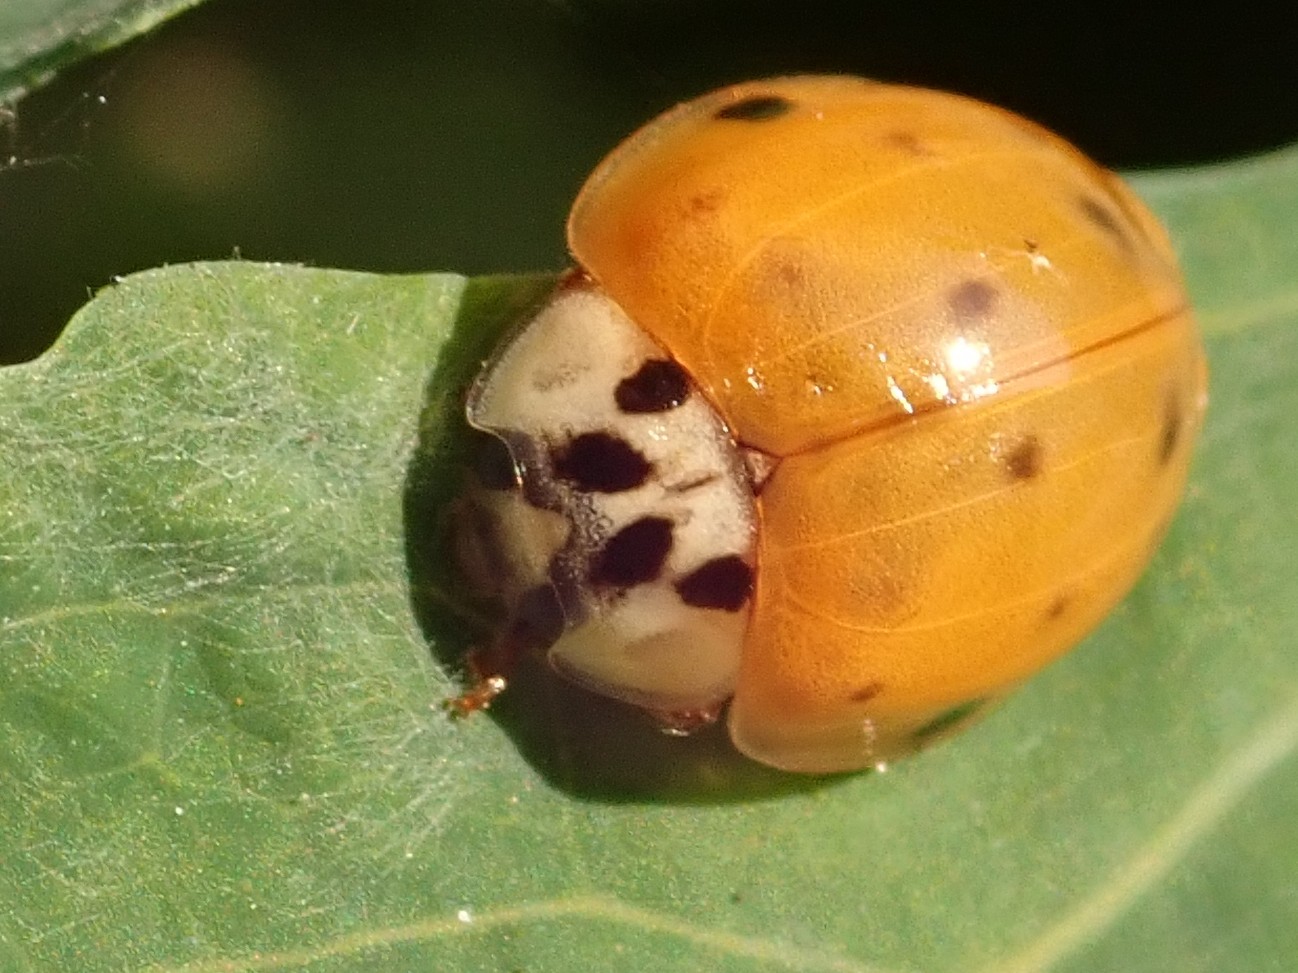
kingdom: Animalia
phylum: Arthropoda
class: Insecta
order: Coleoptera
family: Coccinellidae
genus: Harmonia
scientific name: Harmonia axyridis
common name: Harlequin ladybird
